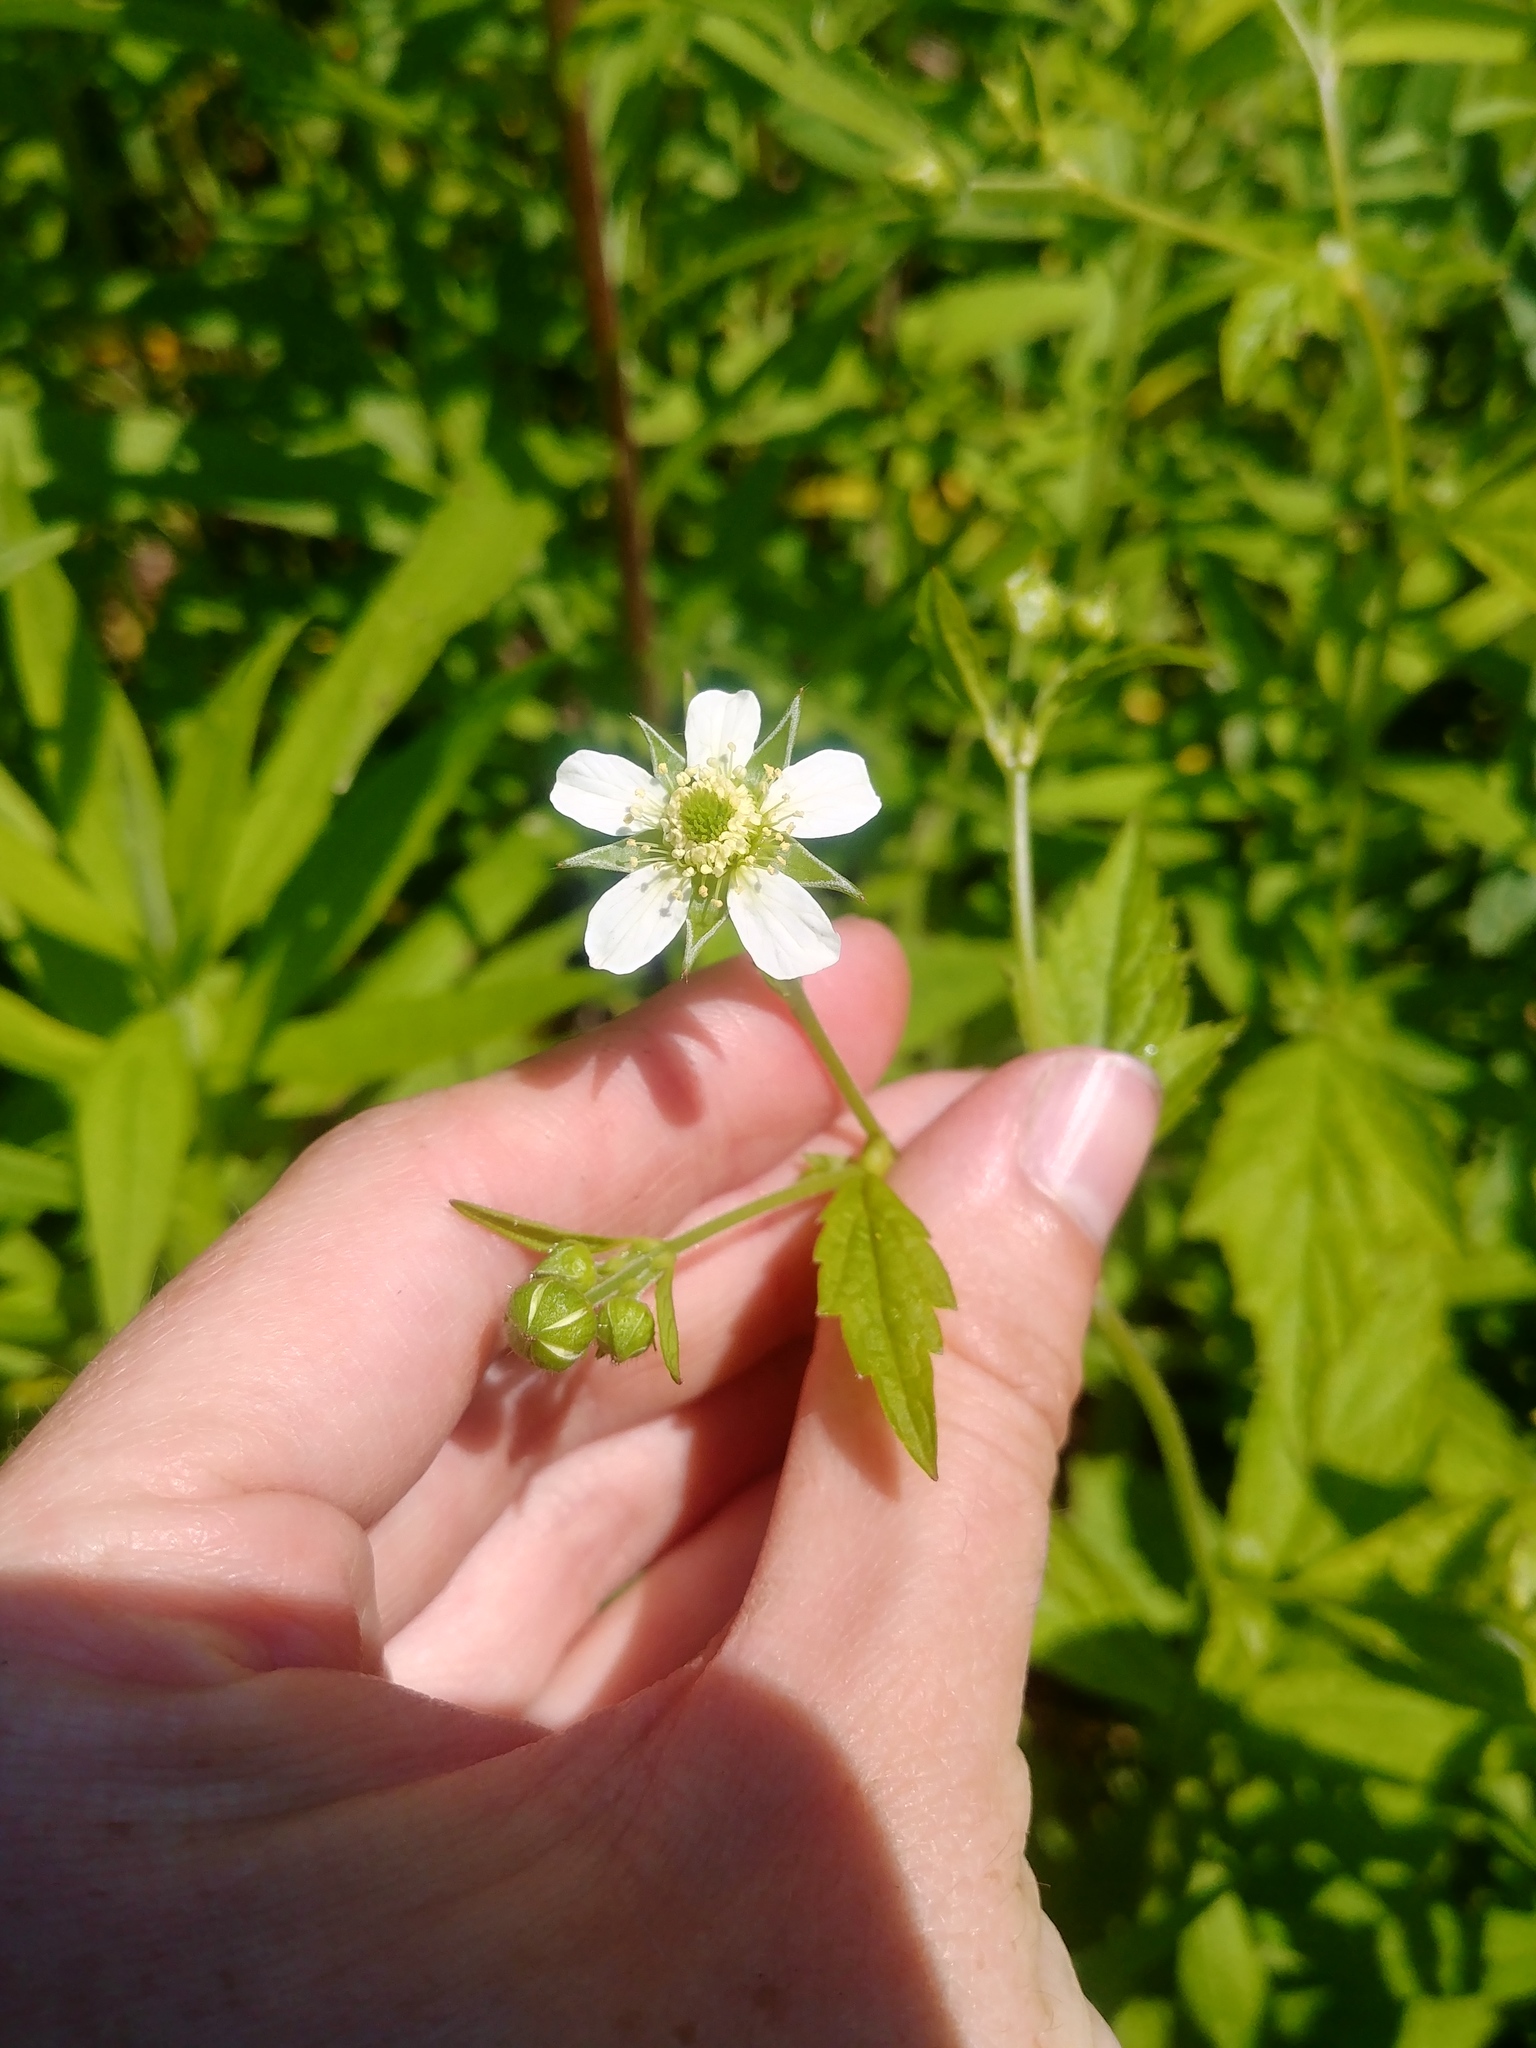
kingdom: Plantae
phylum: Tracheophyta
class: Magnoliopsida
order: Rosales
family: Rosaceae
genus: Geum
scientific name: Geum canadense
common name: White avens
